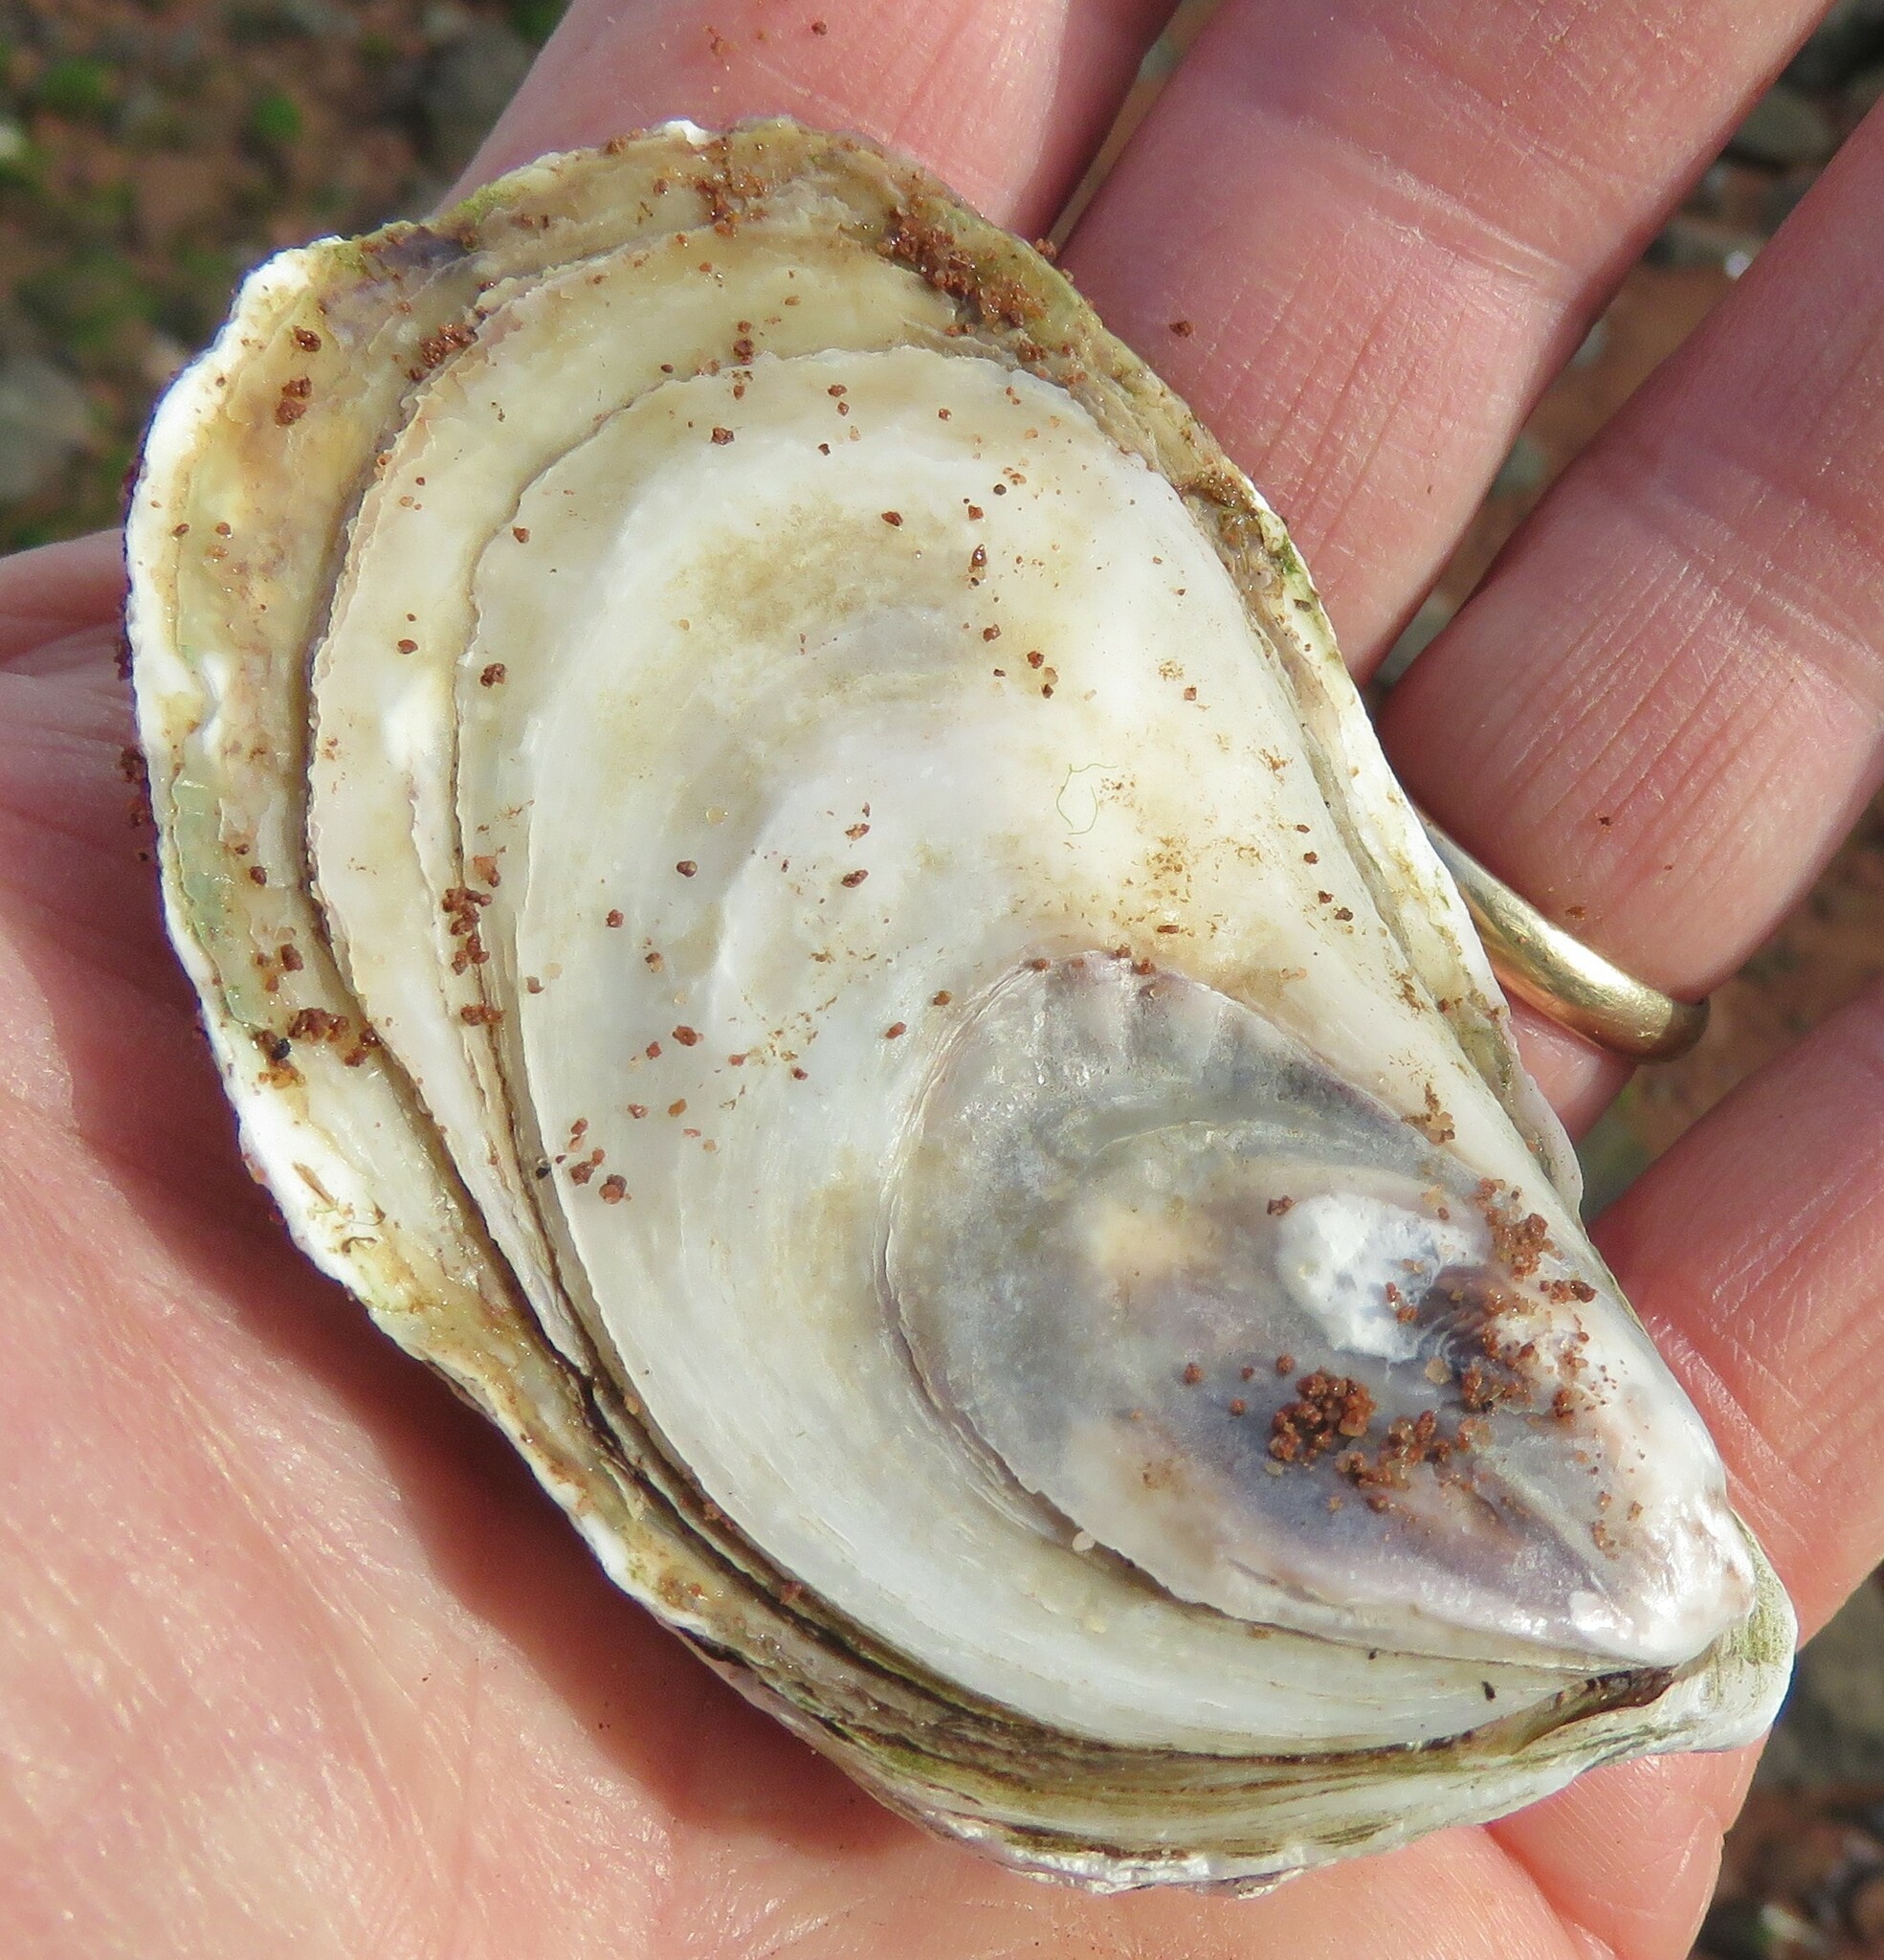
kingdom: Animalia
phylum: Mollusca
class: Bivalvia
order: Ostreida
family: Ostreidae
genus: Crassostrea
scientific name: Crassostrea virginica
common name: American oyster
